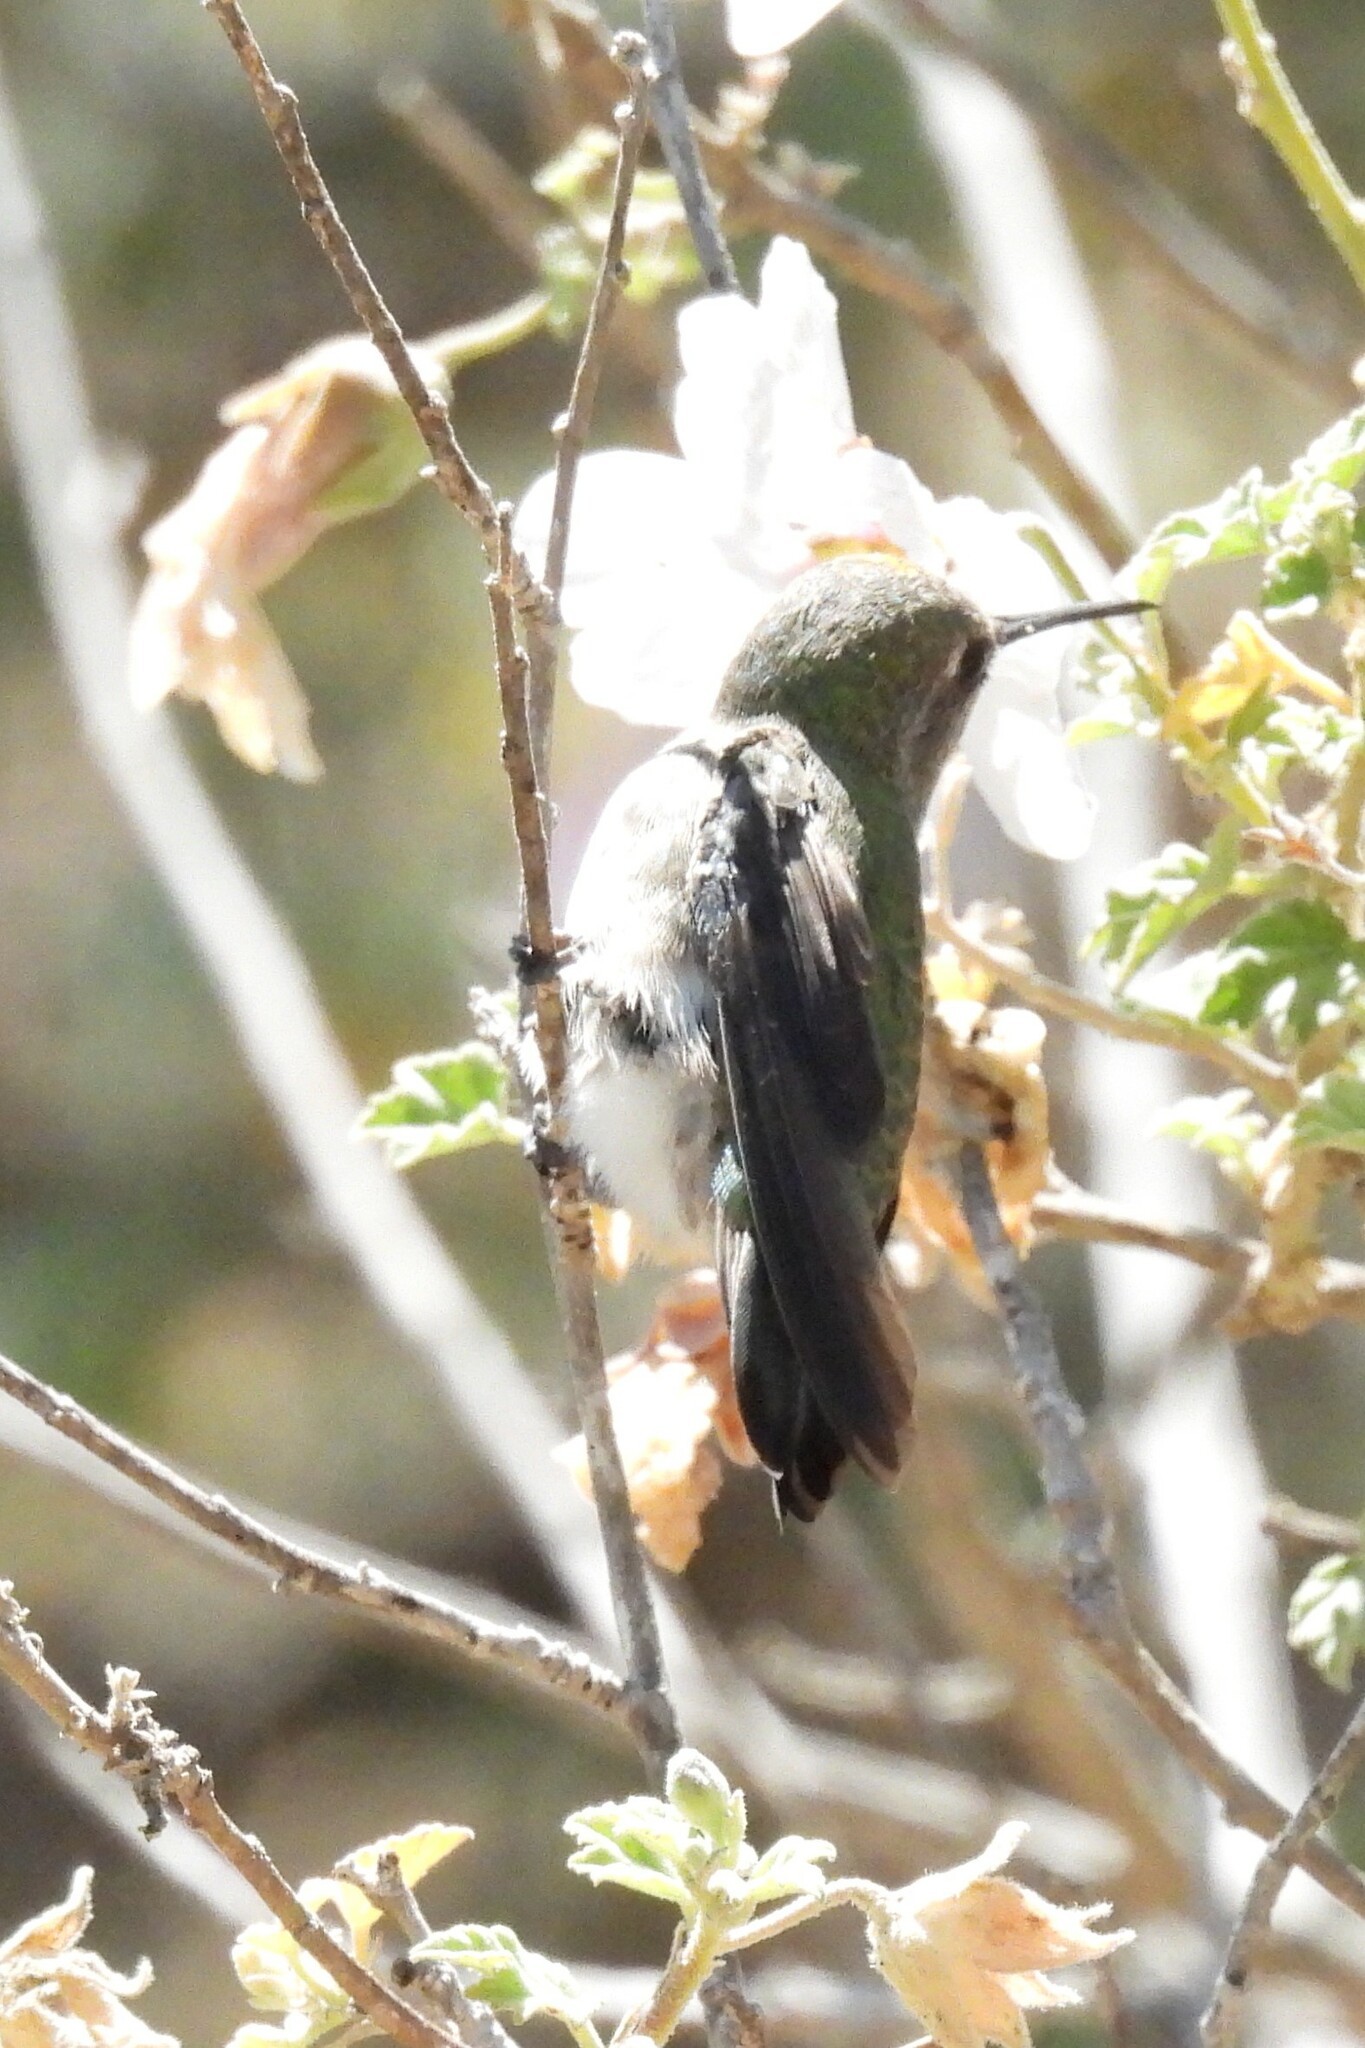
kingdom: Animalia
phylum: Chordata
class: Aves
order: Apodiformes
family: Trochilidae
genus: Calypte
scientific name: Calypte anna
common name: Anna's hummingbird
